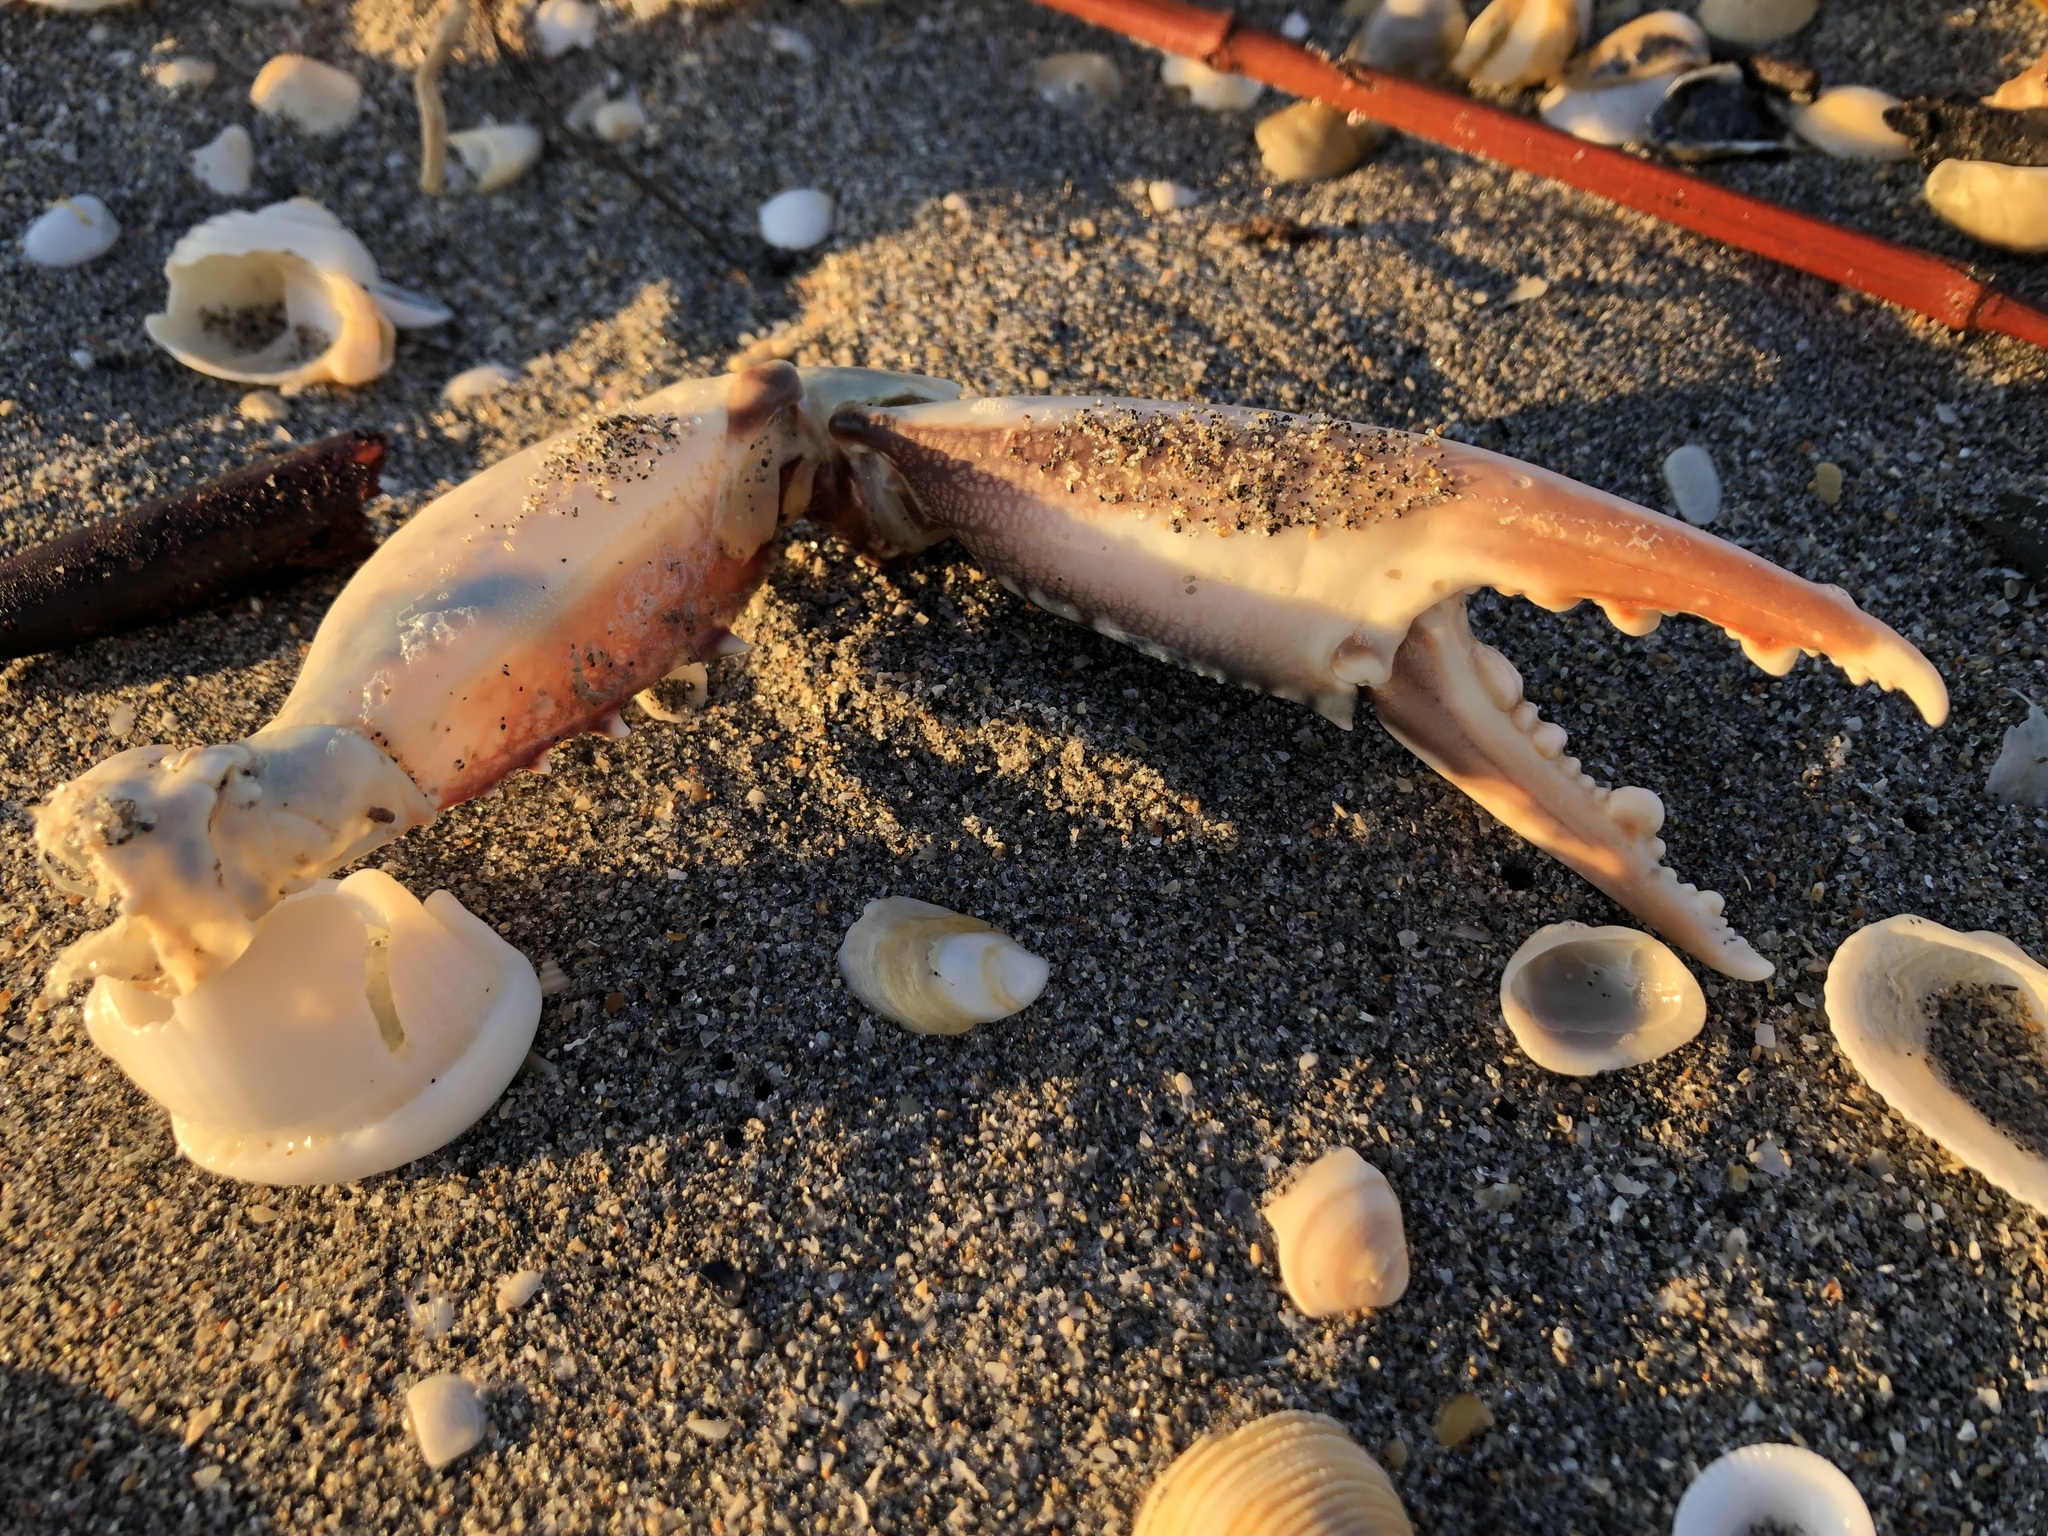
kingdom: Animalia
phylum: Arthropoda
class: Malacostraca
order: Decapoda
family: Portunidae
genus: Arenaeus
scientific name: Arenaeus cribrarius
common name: Speckled crab
